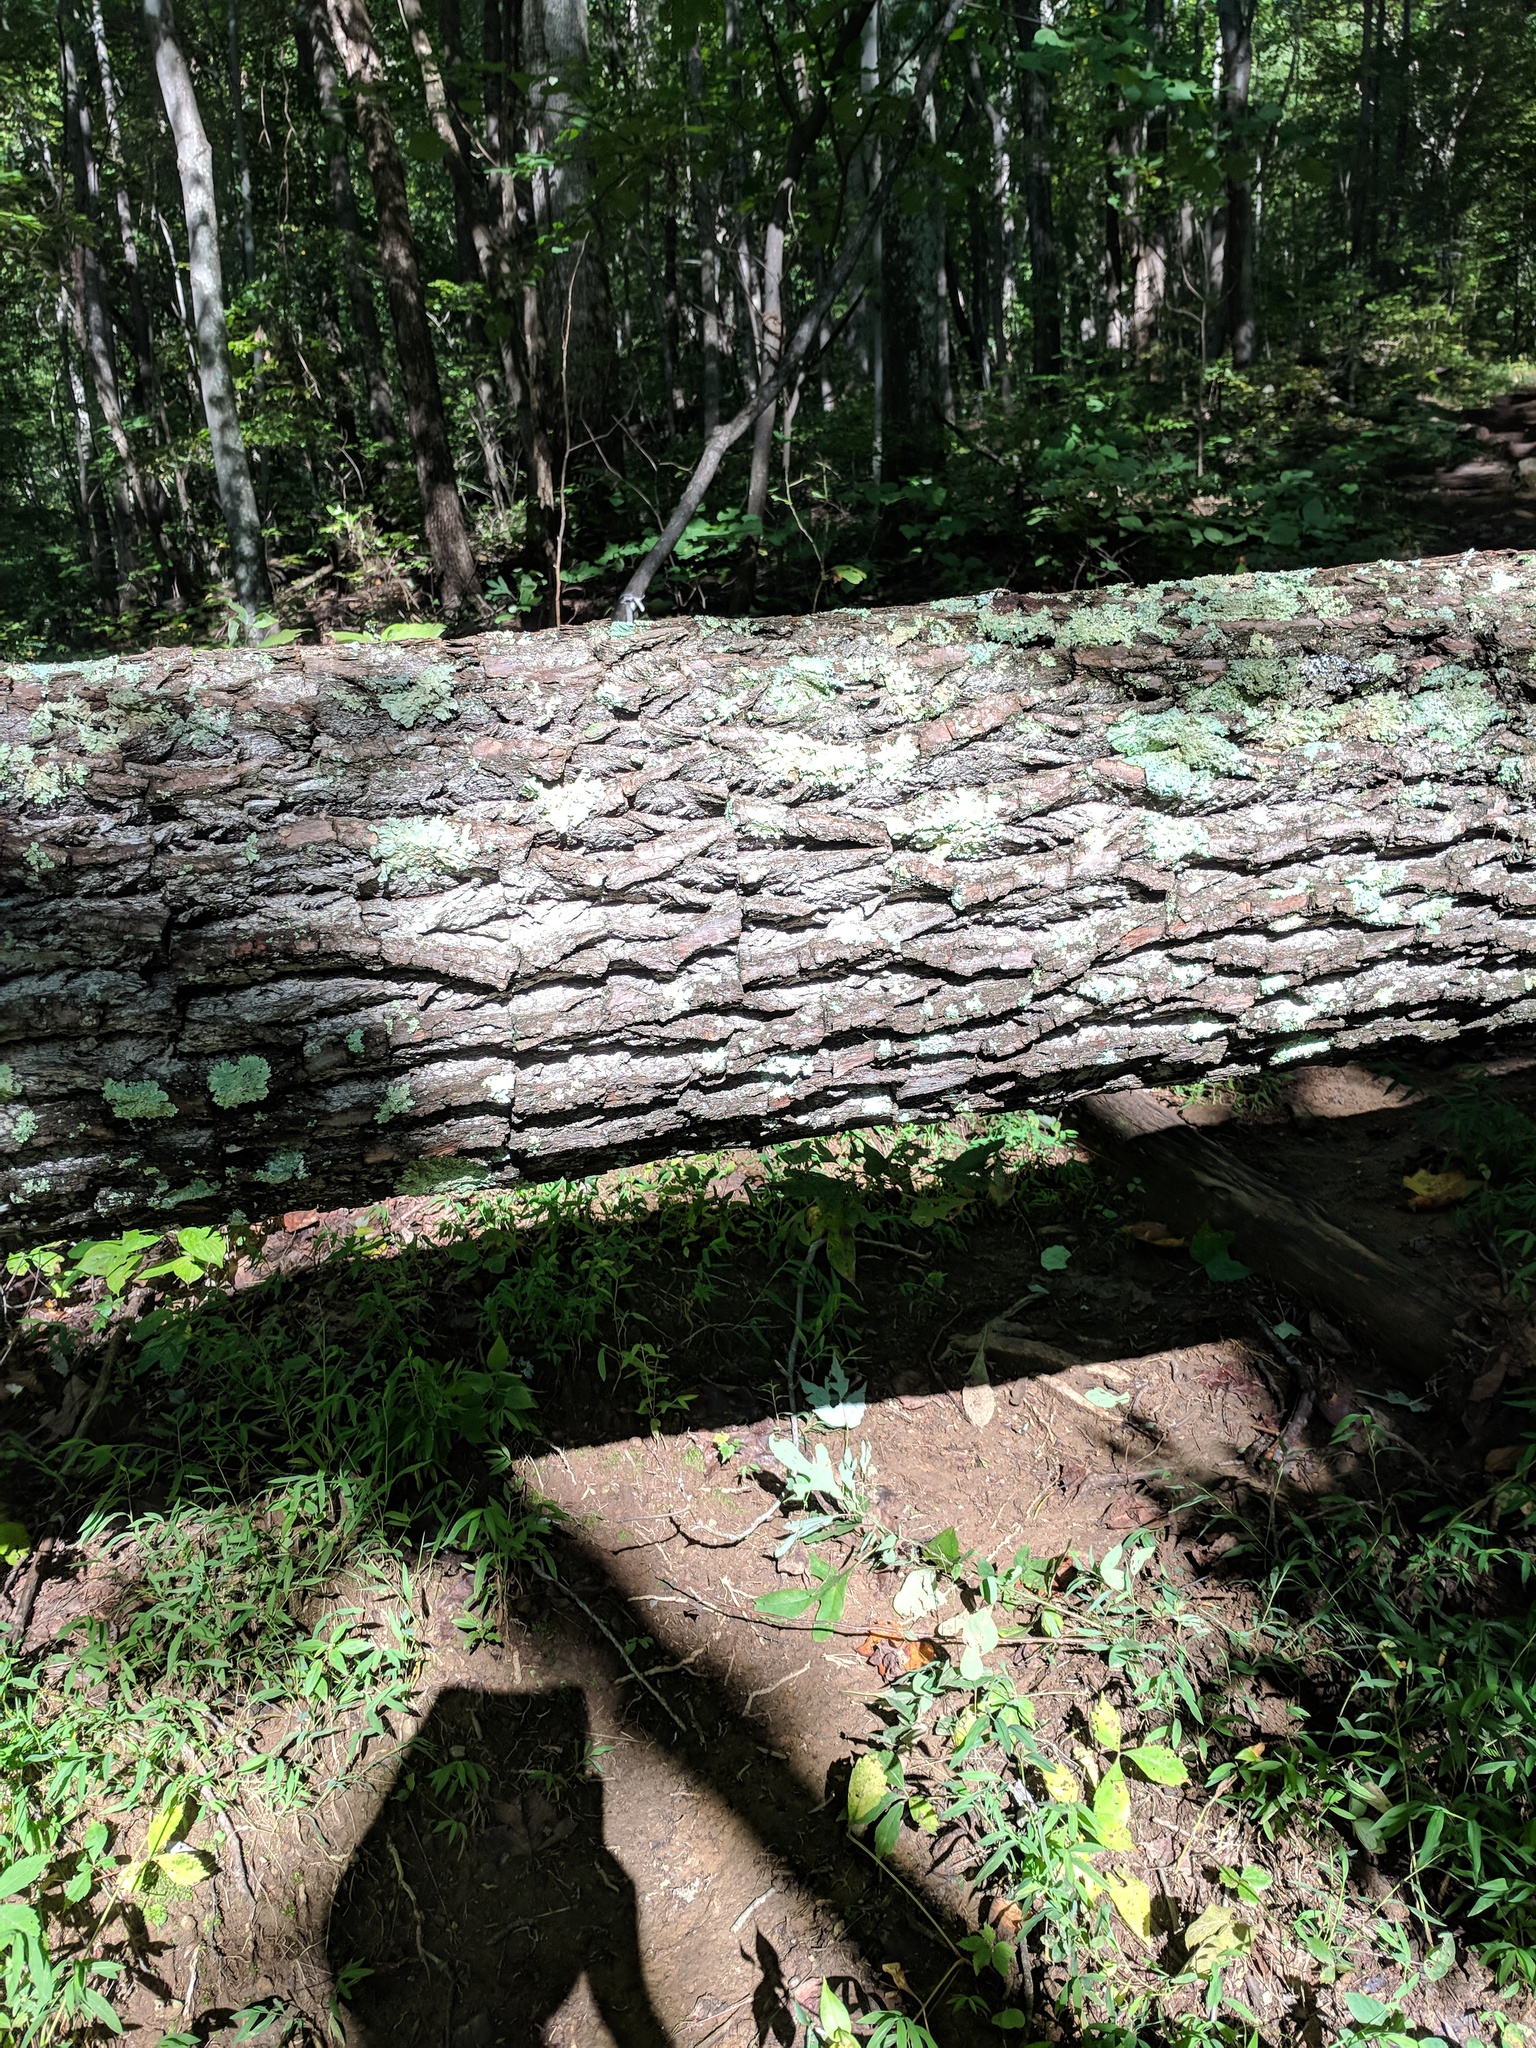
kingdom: Plantae
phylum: Tracheophyta
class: Magnoliopsida
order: Laurales
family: Lauraceae
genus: Sassafras
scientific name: Sassafras albidum
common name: Sassafras
